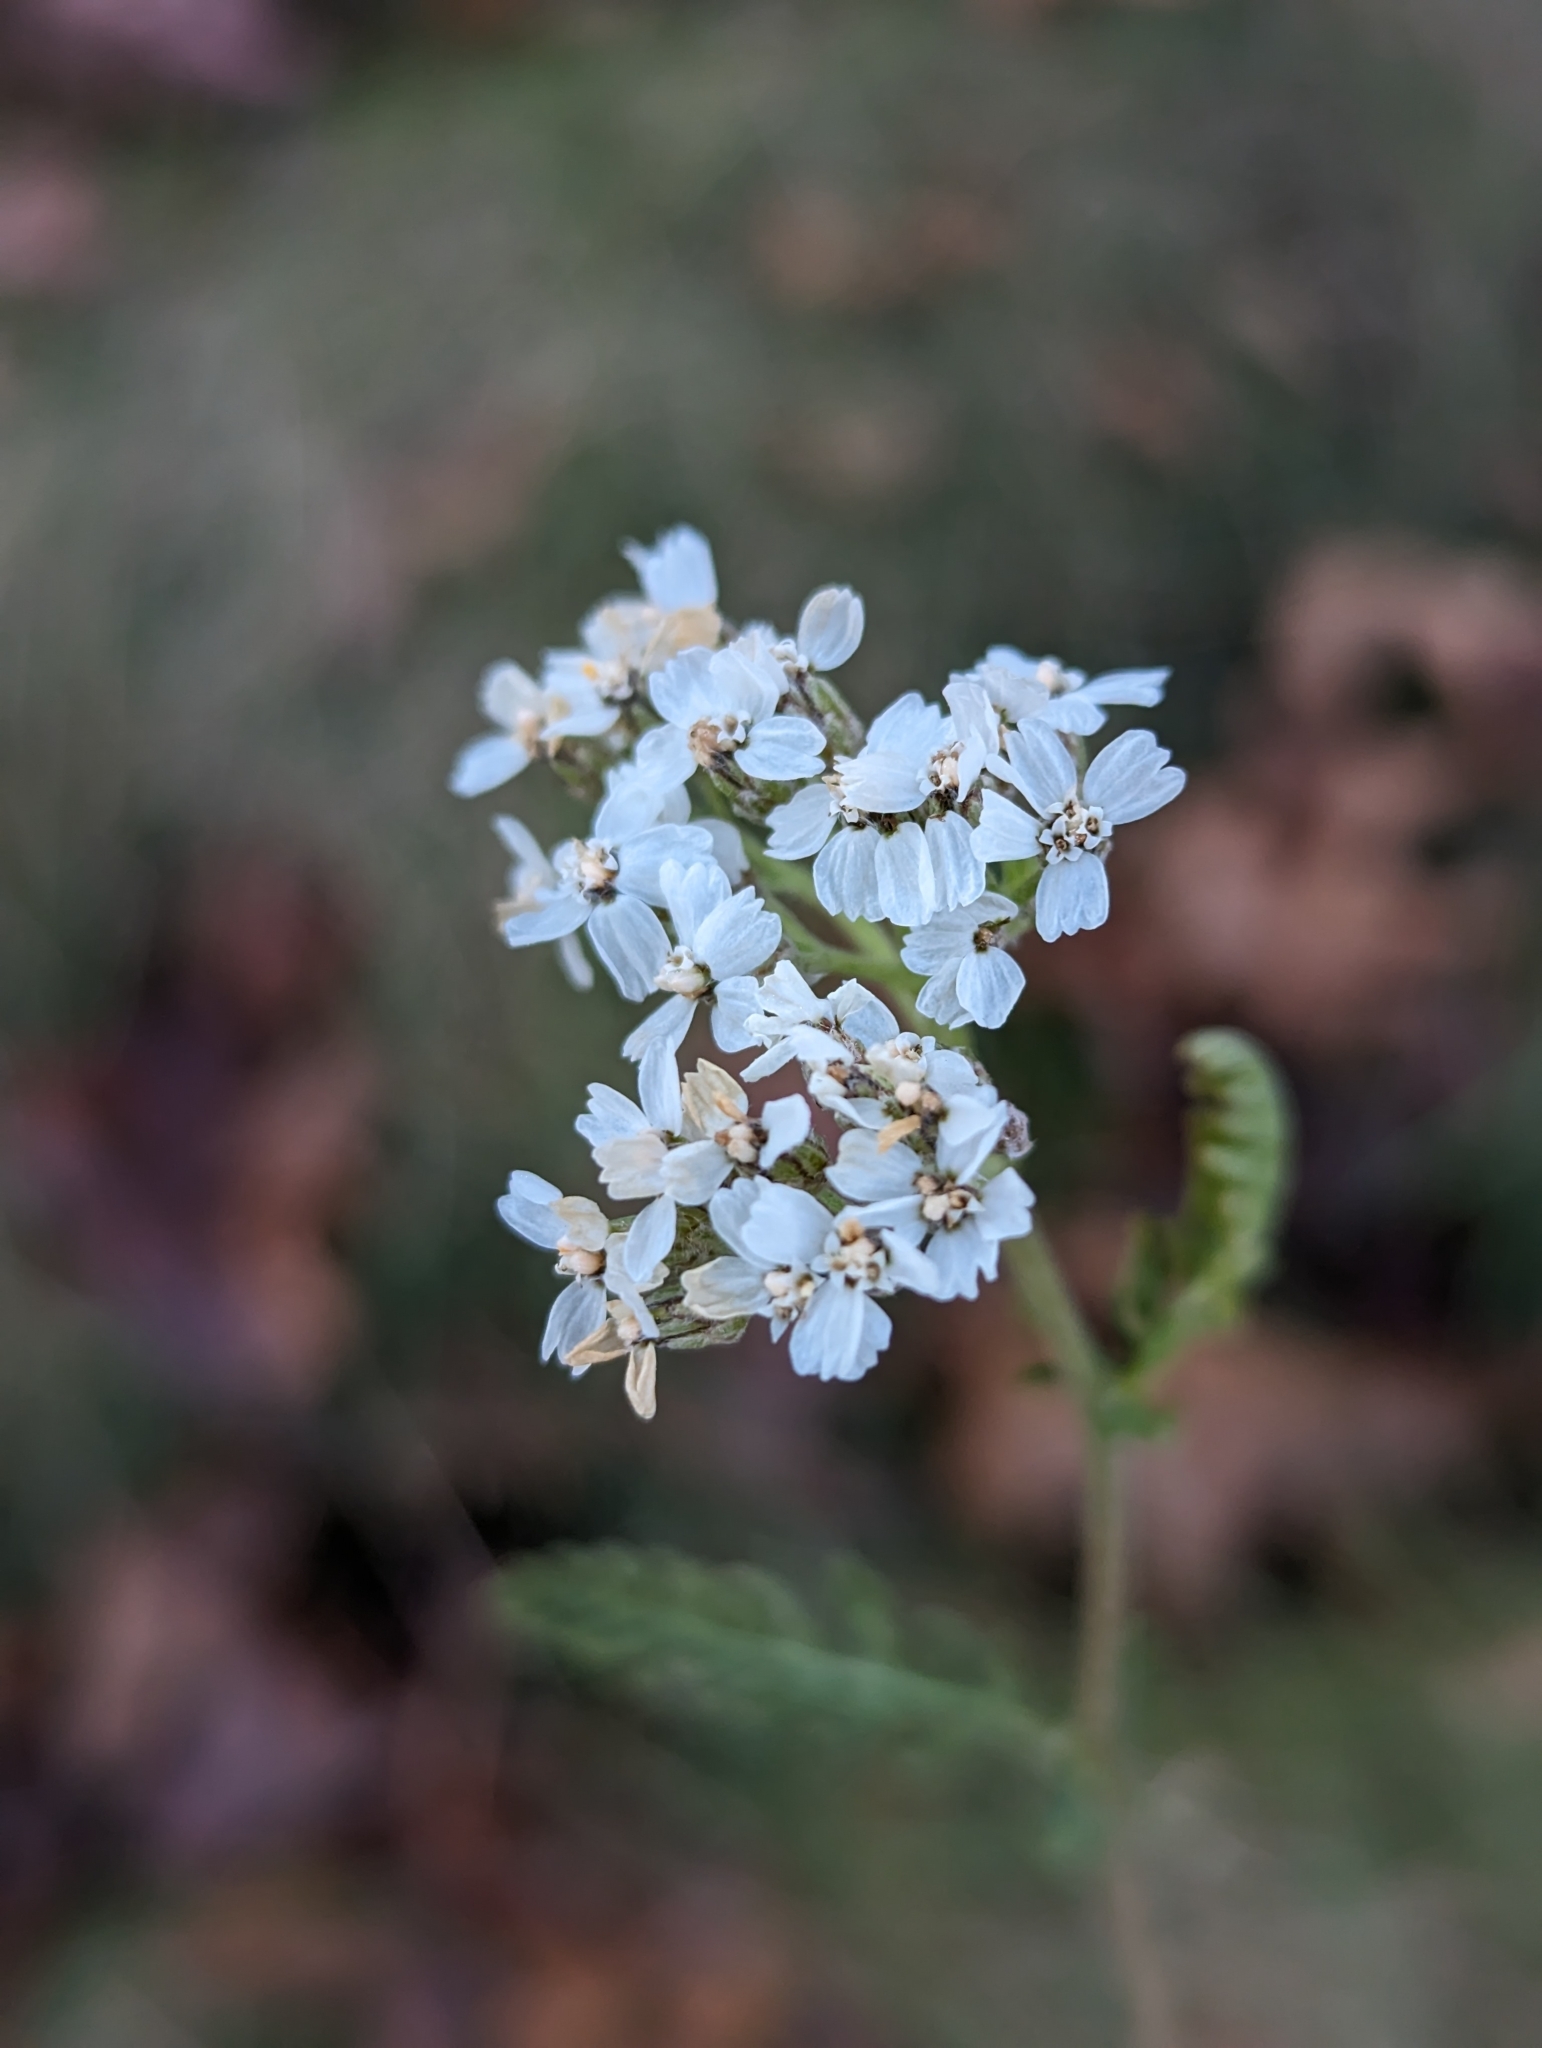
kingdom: Plantae
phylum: Tracheophyta
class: Magnoliopsida
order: Asterales
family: Asteraceae
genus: Achillea
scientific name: Achillea millefolium
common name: Yarrow
